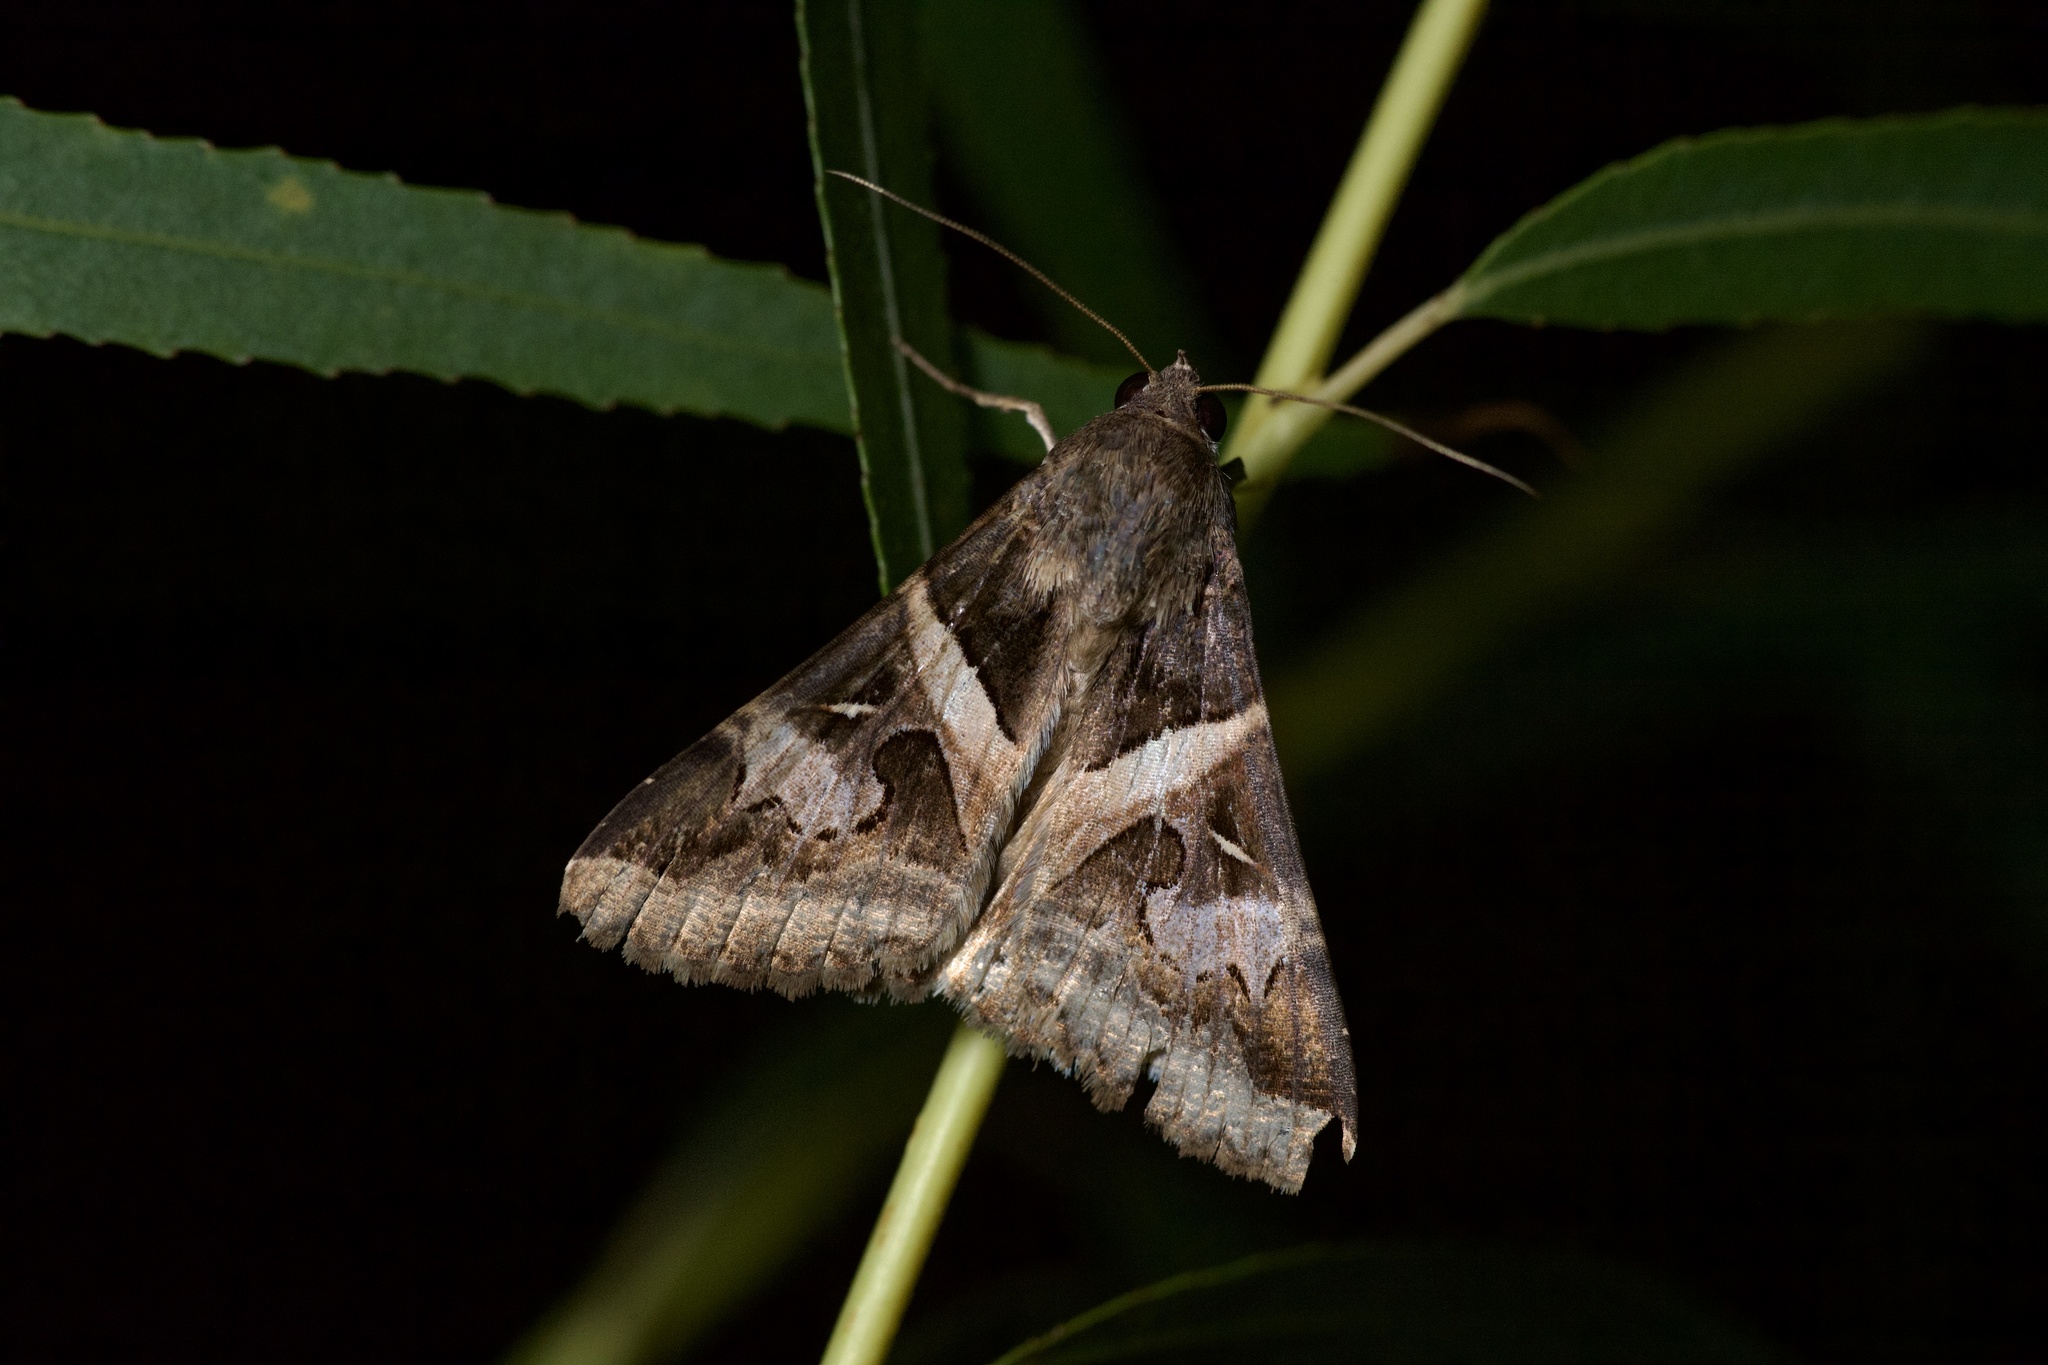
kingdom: Animalia
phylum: Arthropoda
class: Insecta
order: Lepidoptera
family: Erebidae
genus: Melipotis
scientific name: Melipotis indomita
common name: Moth
